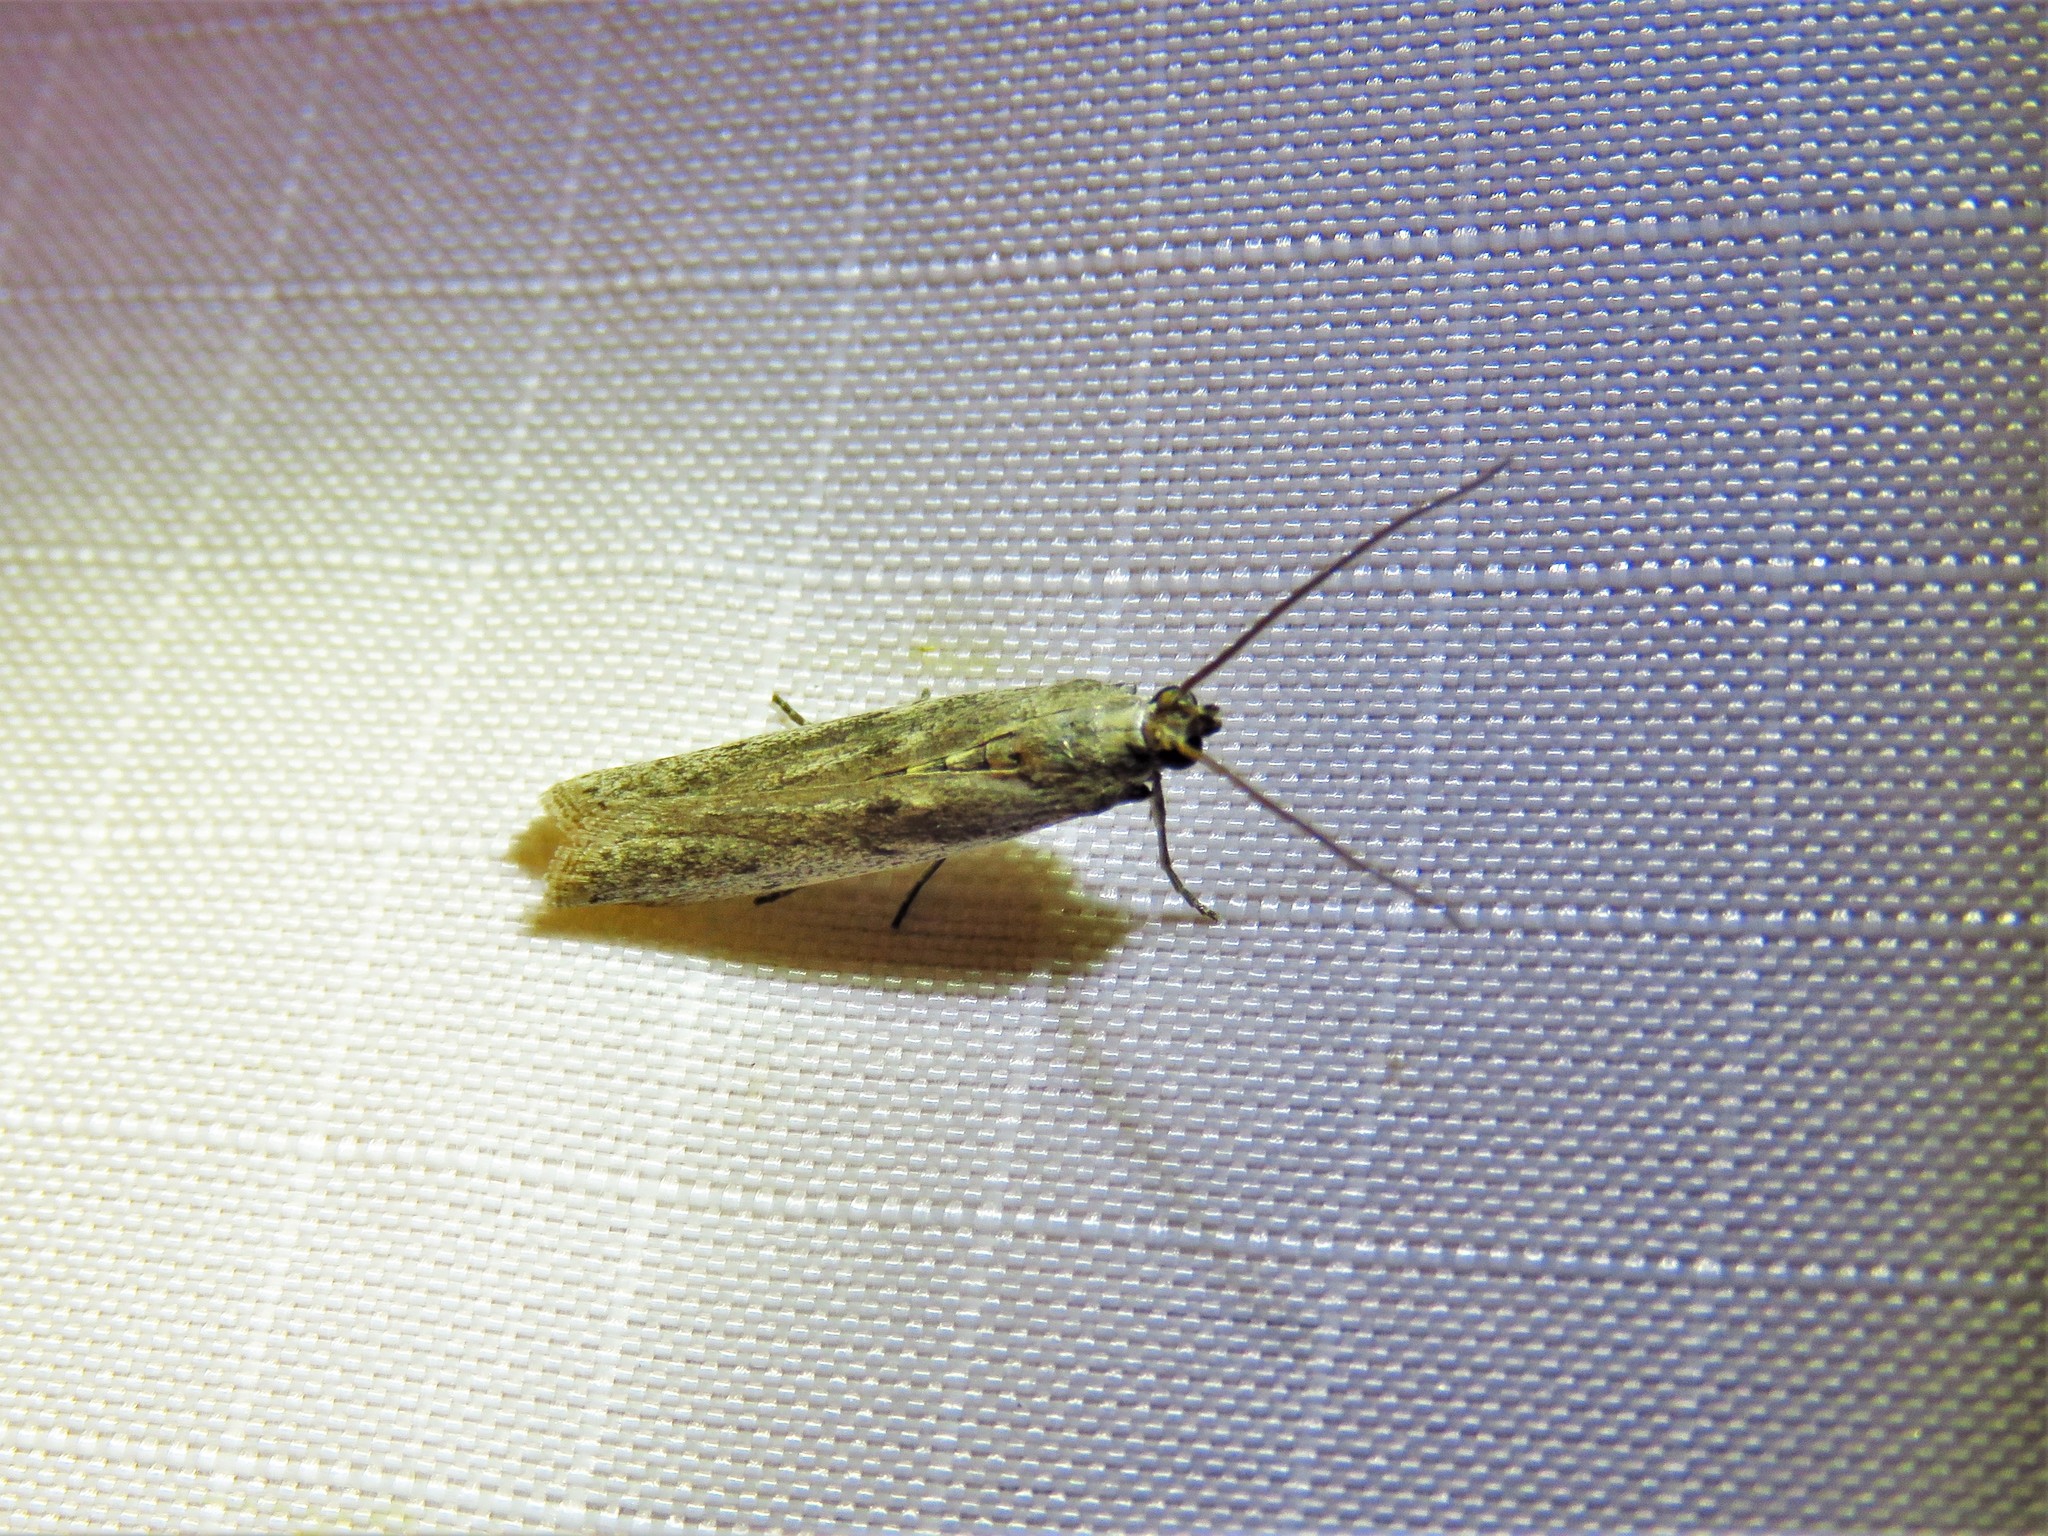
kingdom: Animalia
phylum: Arthropoda
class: Insecta
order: Lepidoptera
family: Pyralidae
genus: Homoeosoma
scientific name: Homoeosoma electella
